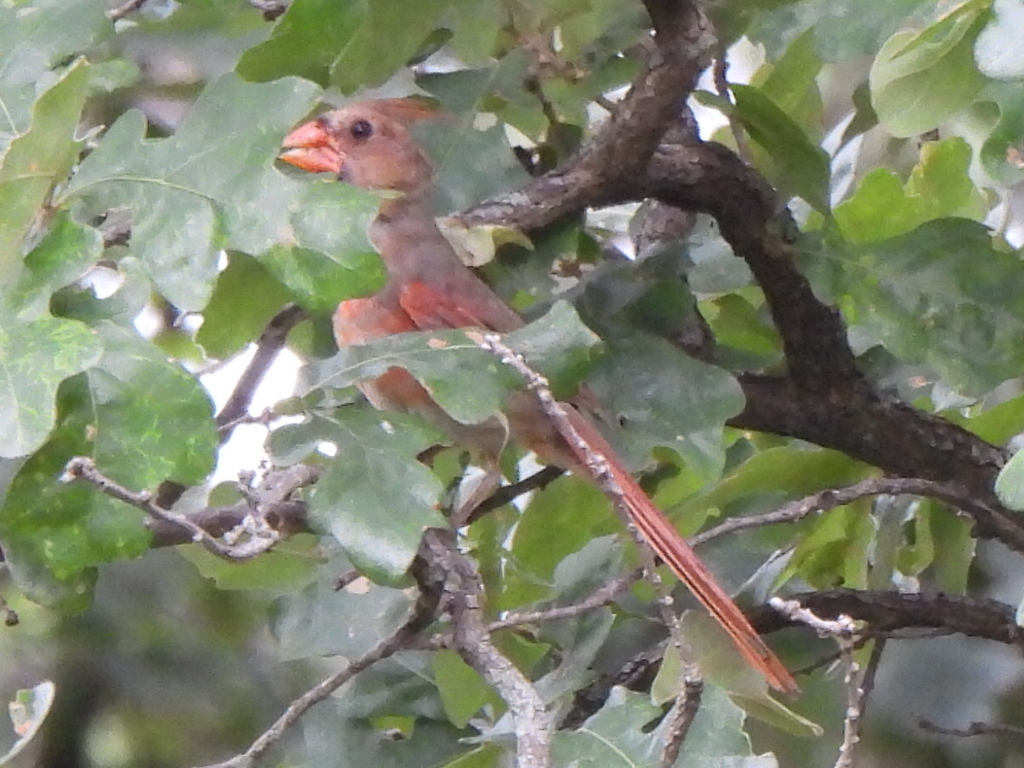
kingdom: Animalia
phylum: Chordata
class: Aves
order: Passeriformes
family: Cardinalidae
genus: Cardinalis
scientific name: Cardinalis cardinalis
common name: Northern cardinal
